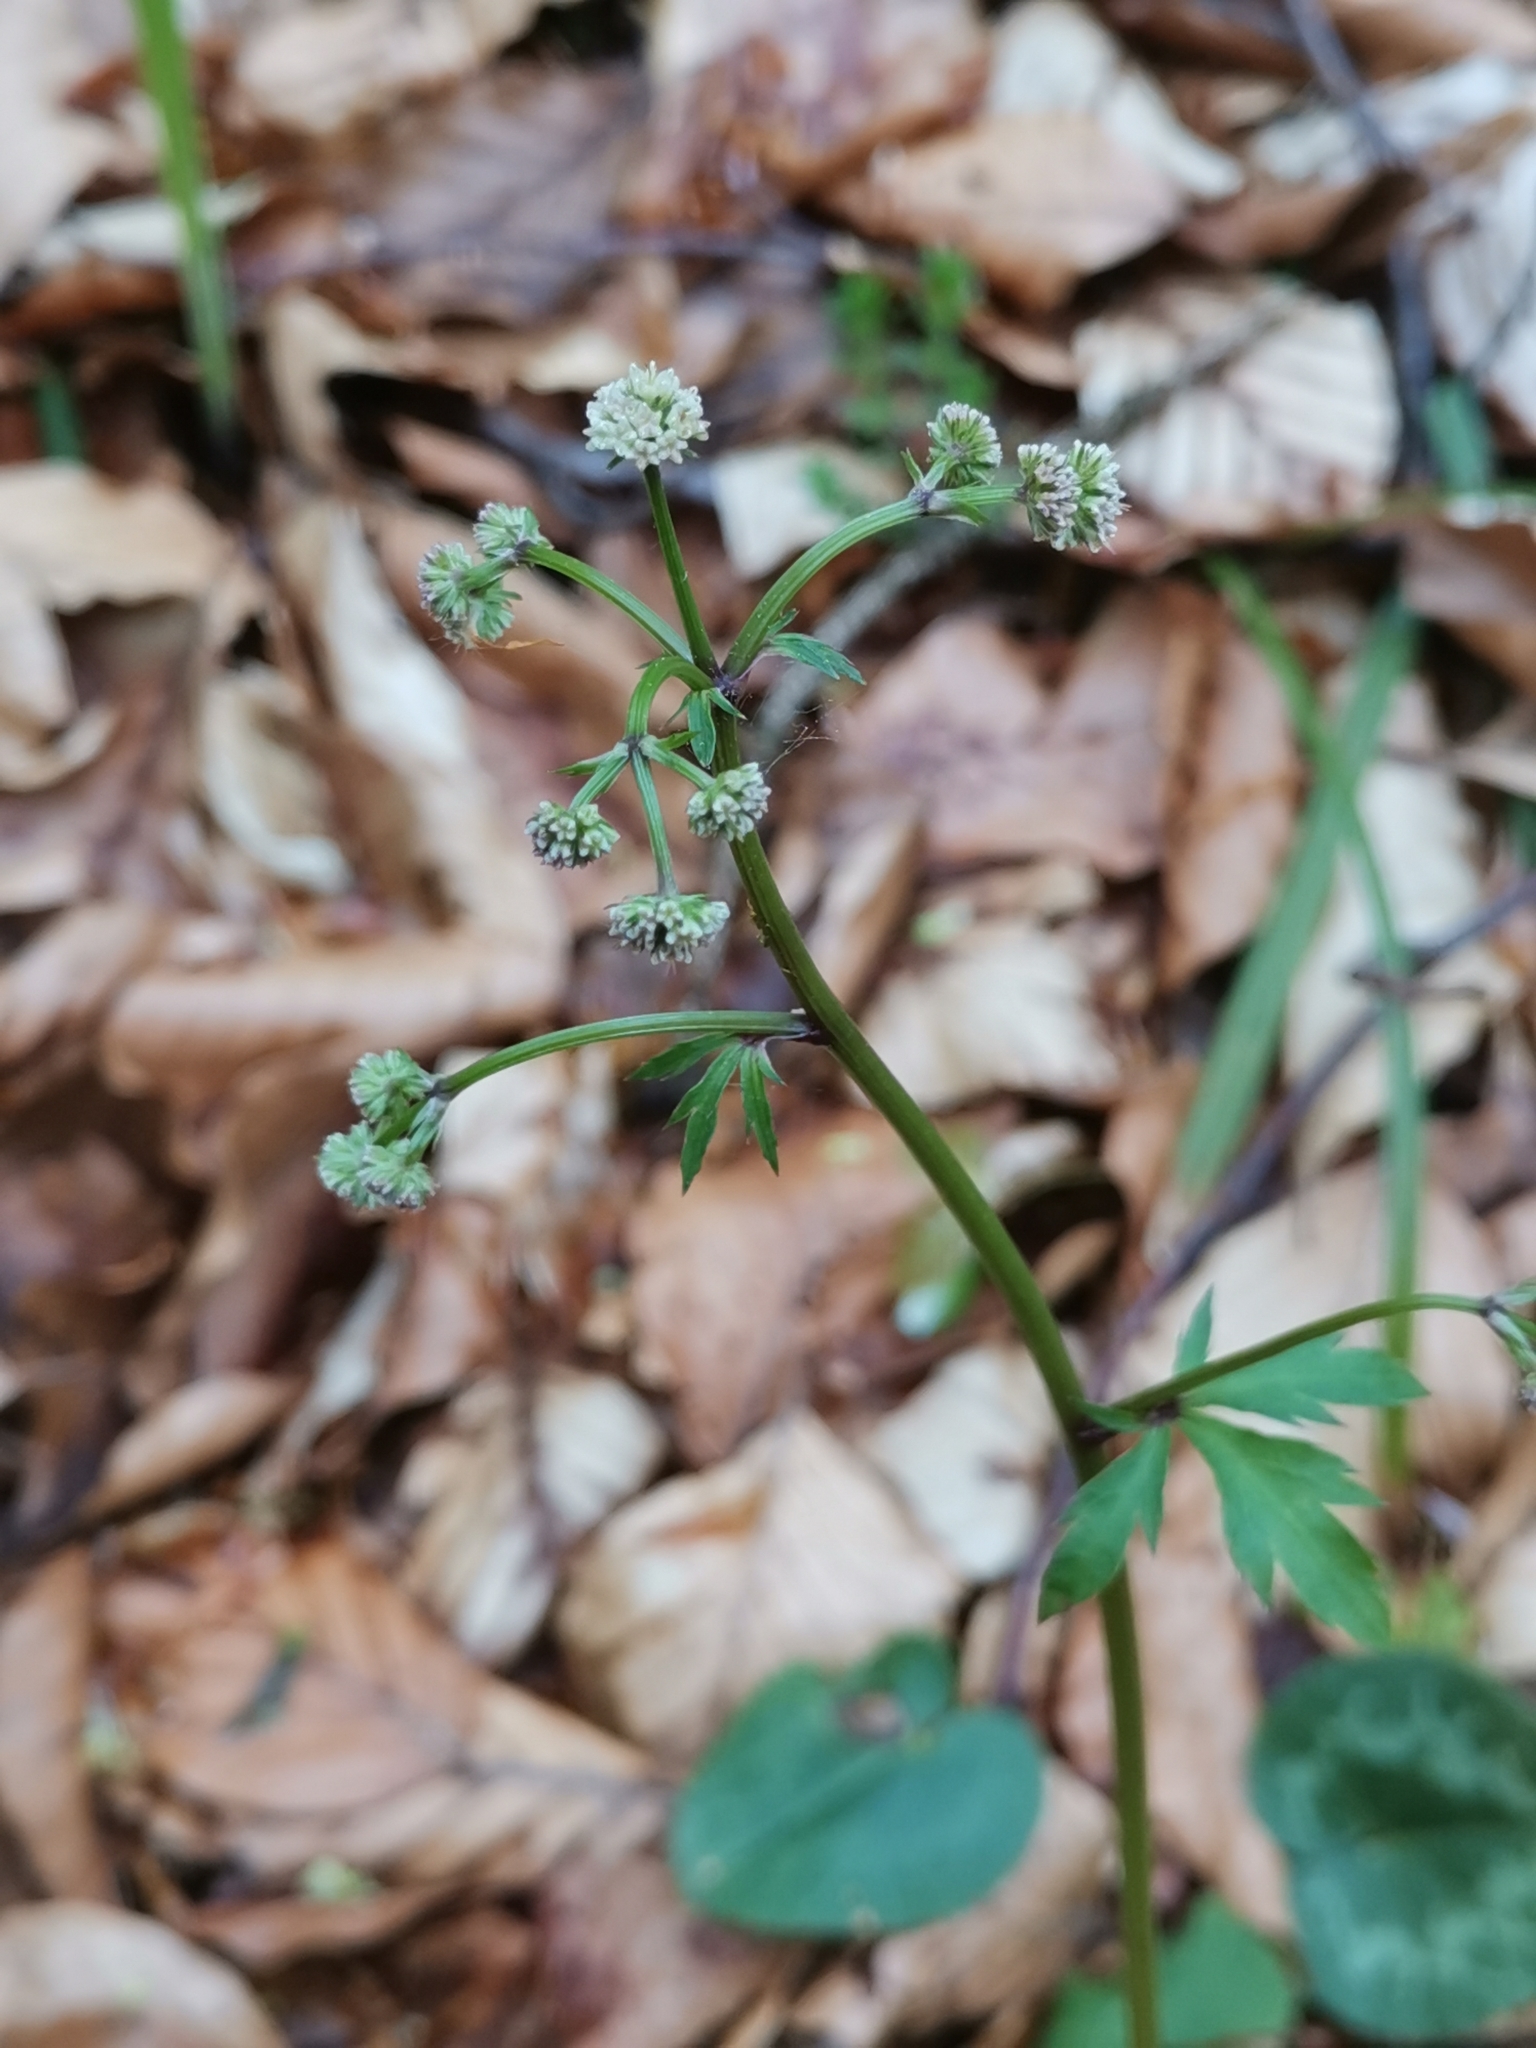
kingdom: Plantae
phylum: Tracheophyta
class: Magnoliopsida
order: Apiales
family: Apiaceae
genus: Sanicula
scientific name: Sanicula europaea
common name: Sanicle
